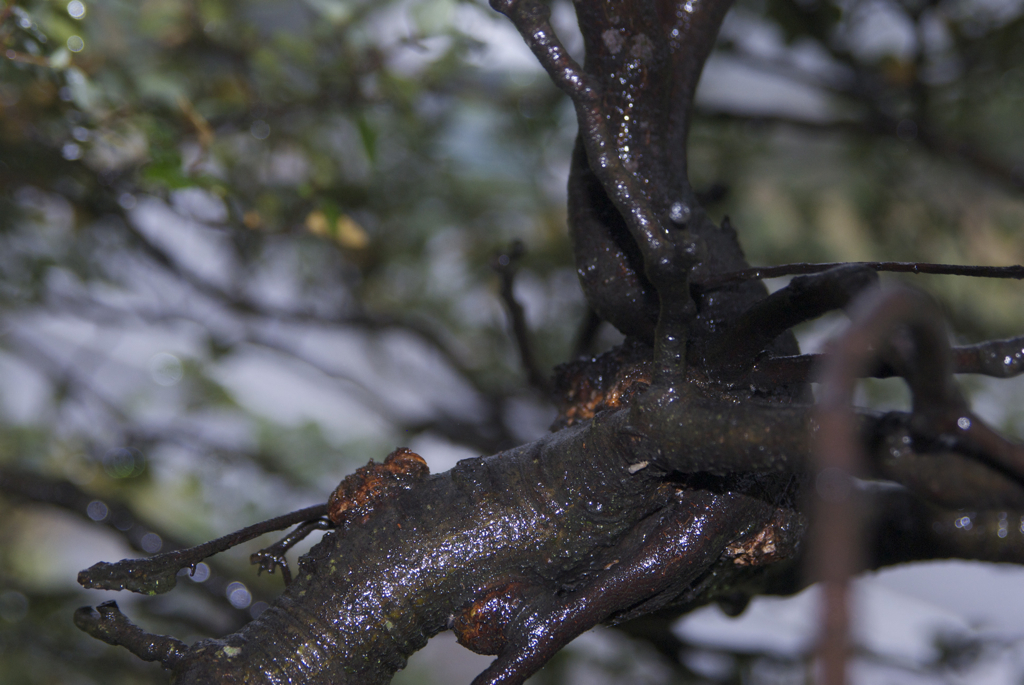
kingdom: Plantae
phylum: Tracheophyta
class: Magnoliopsida
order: Santalales
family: Loranthaceae
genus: Alepis
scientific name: Alepis flavida
